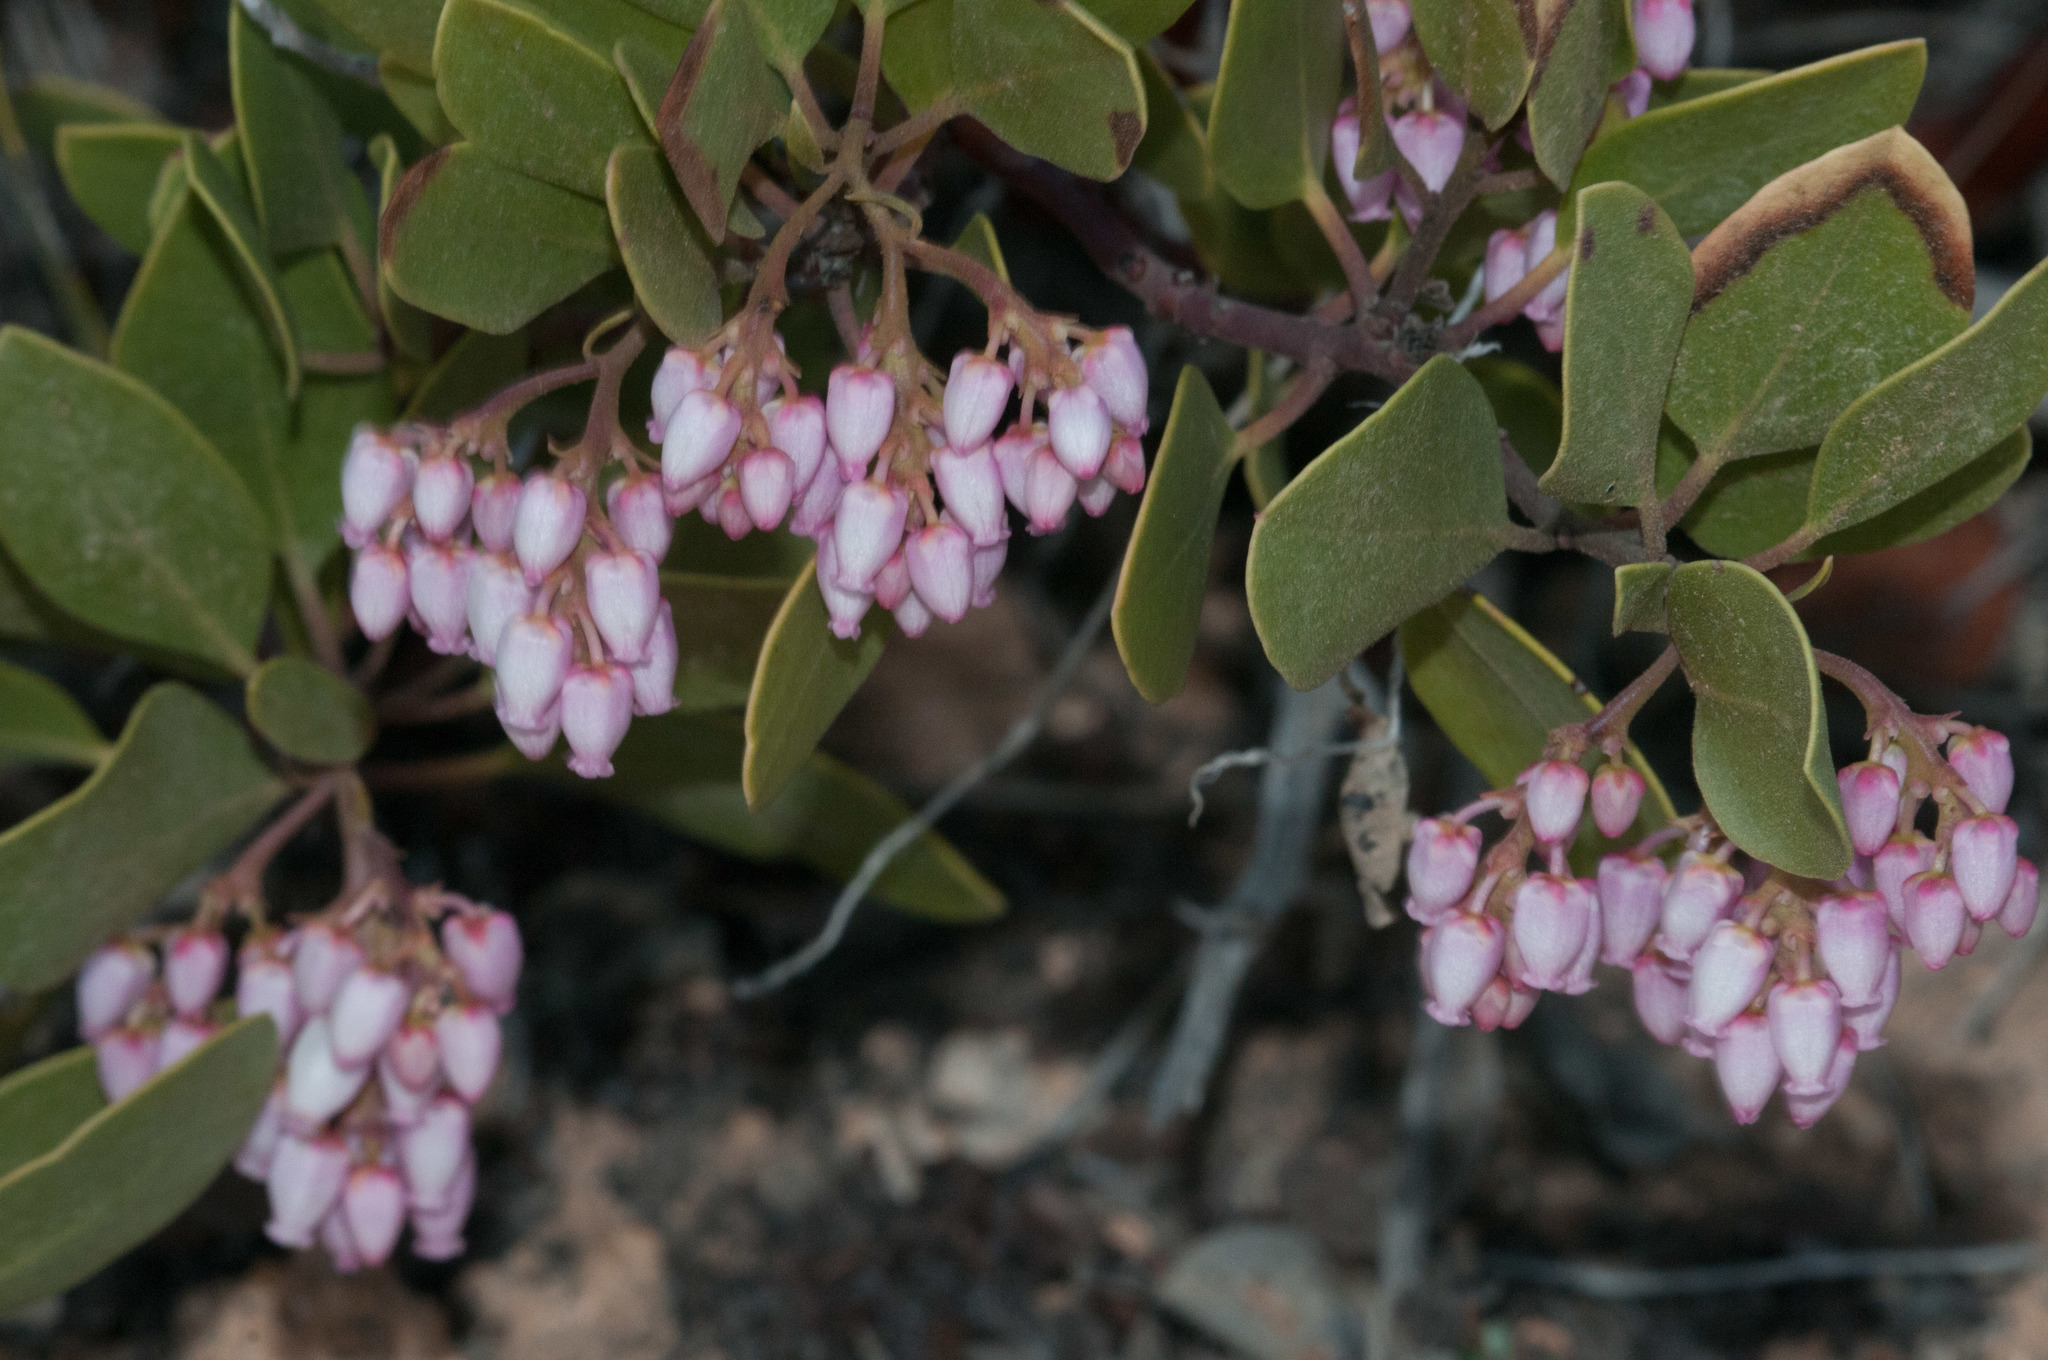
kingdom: Plantae
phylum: Tracheophyta
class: Magnoliopsida
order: Ericales
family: Ericaceae
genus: Arctostaphylos
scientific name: Arctostaphylos patula
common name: Green-leaf manzanita
